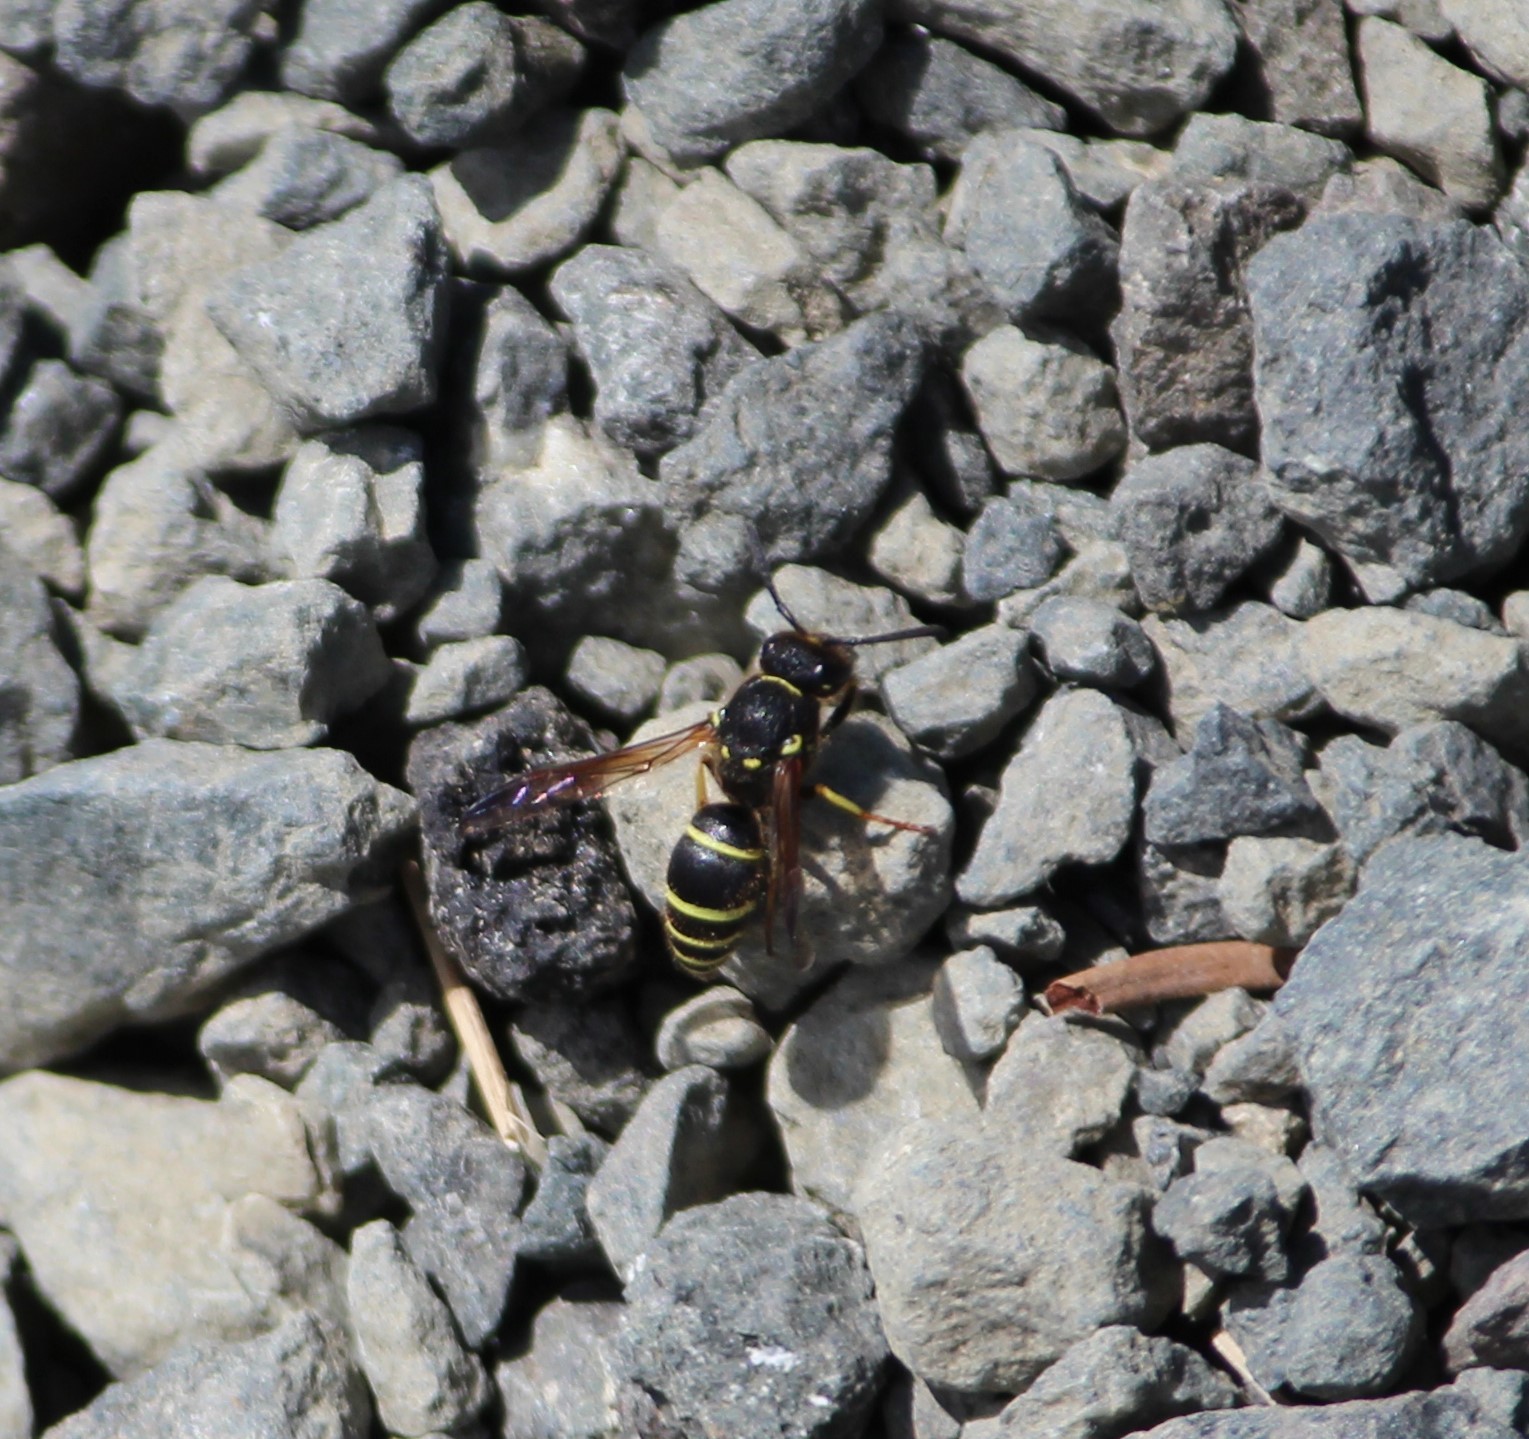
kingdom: Animalia
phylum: Arthropoda
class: Insecta
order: Hymenoptera
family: Vespidae
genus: Ancistrocerus
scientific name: Ancistrocerus
